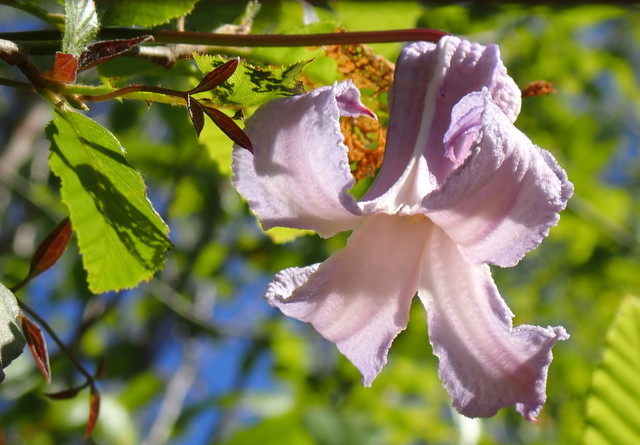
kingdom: Plantae
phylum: Tracheophyta
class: Magnoliopsida
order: Ranunculales
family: Ranunculaceae
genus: Clematis
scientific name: Clematis crispa
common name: Curly clematis
